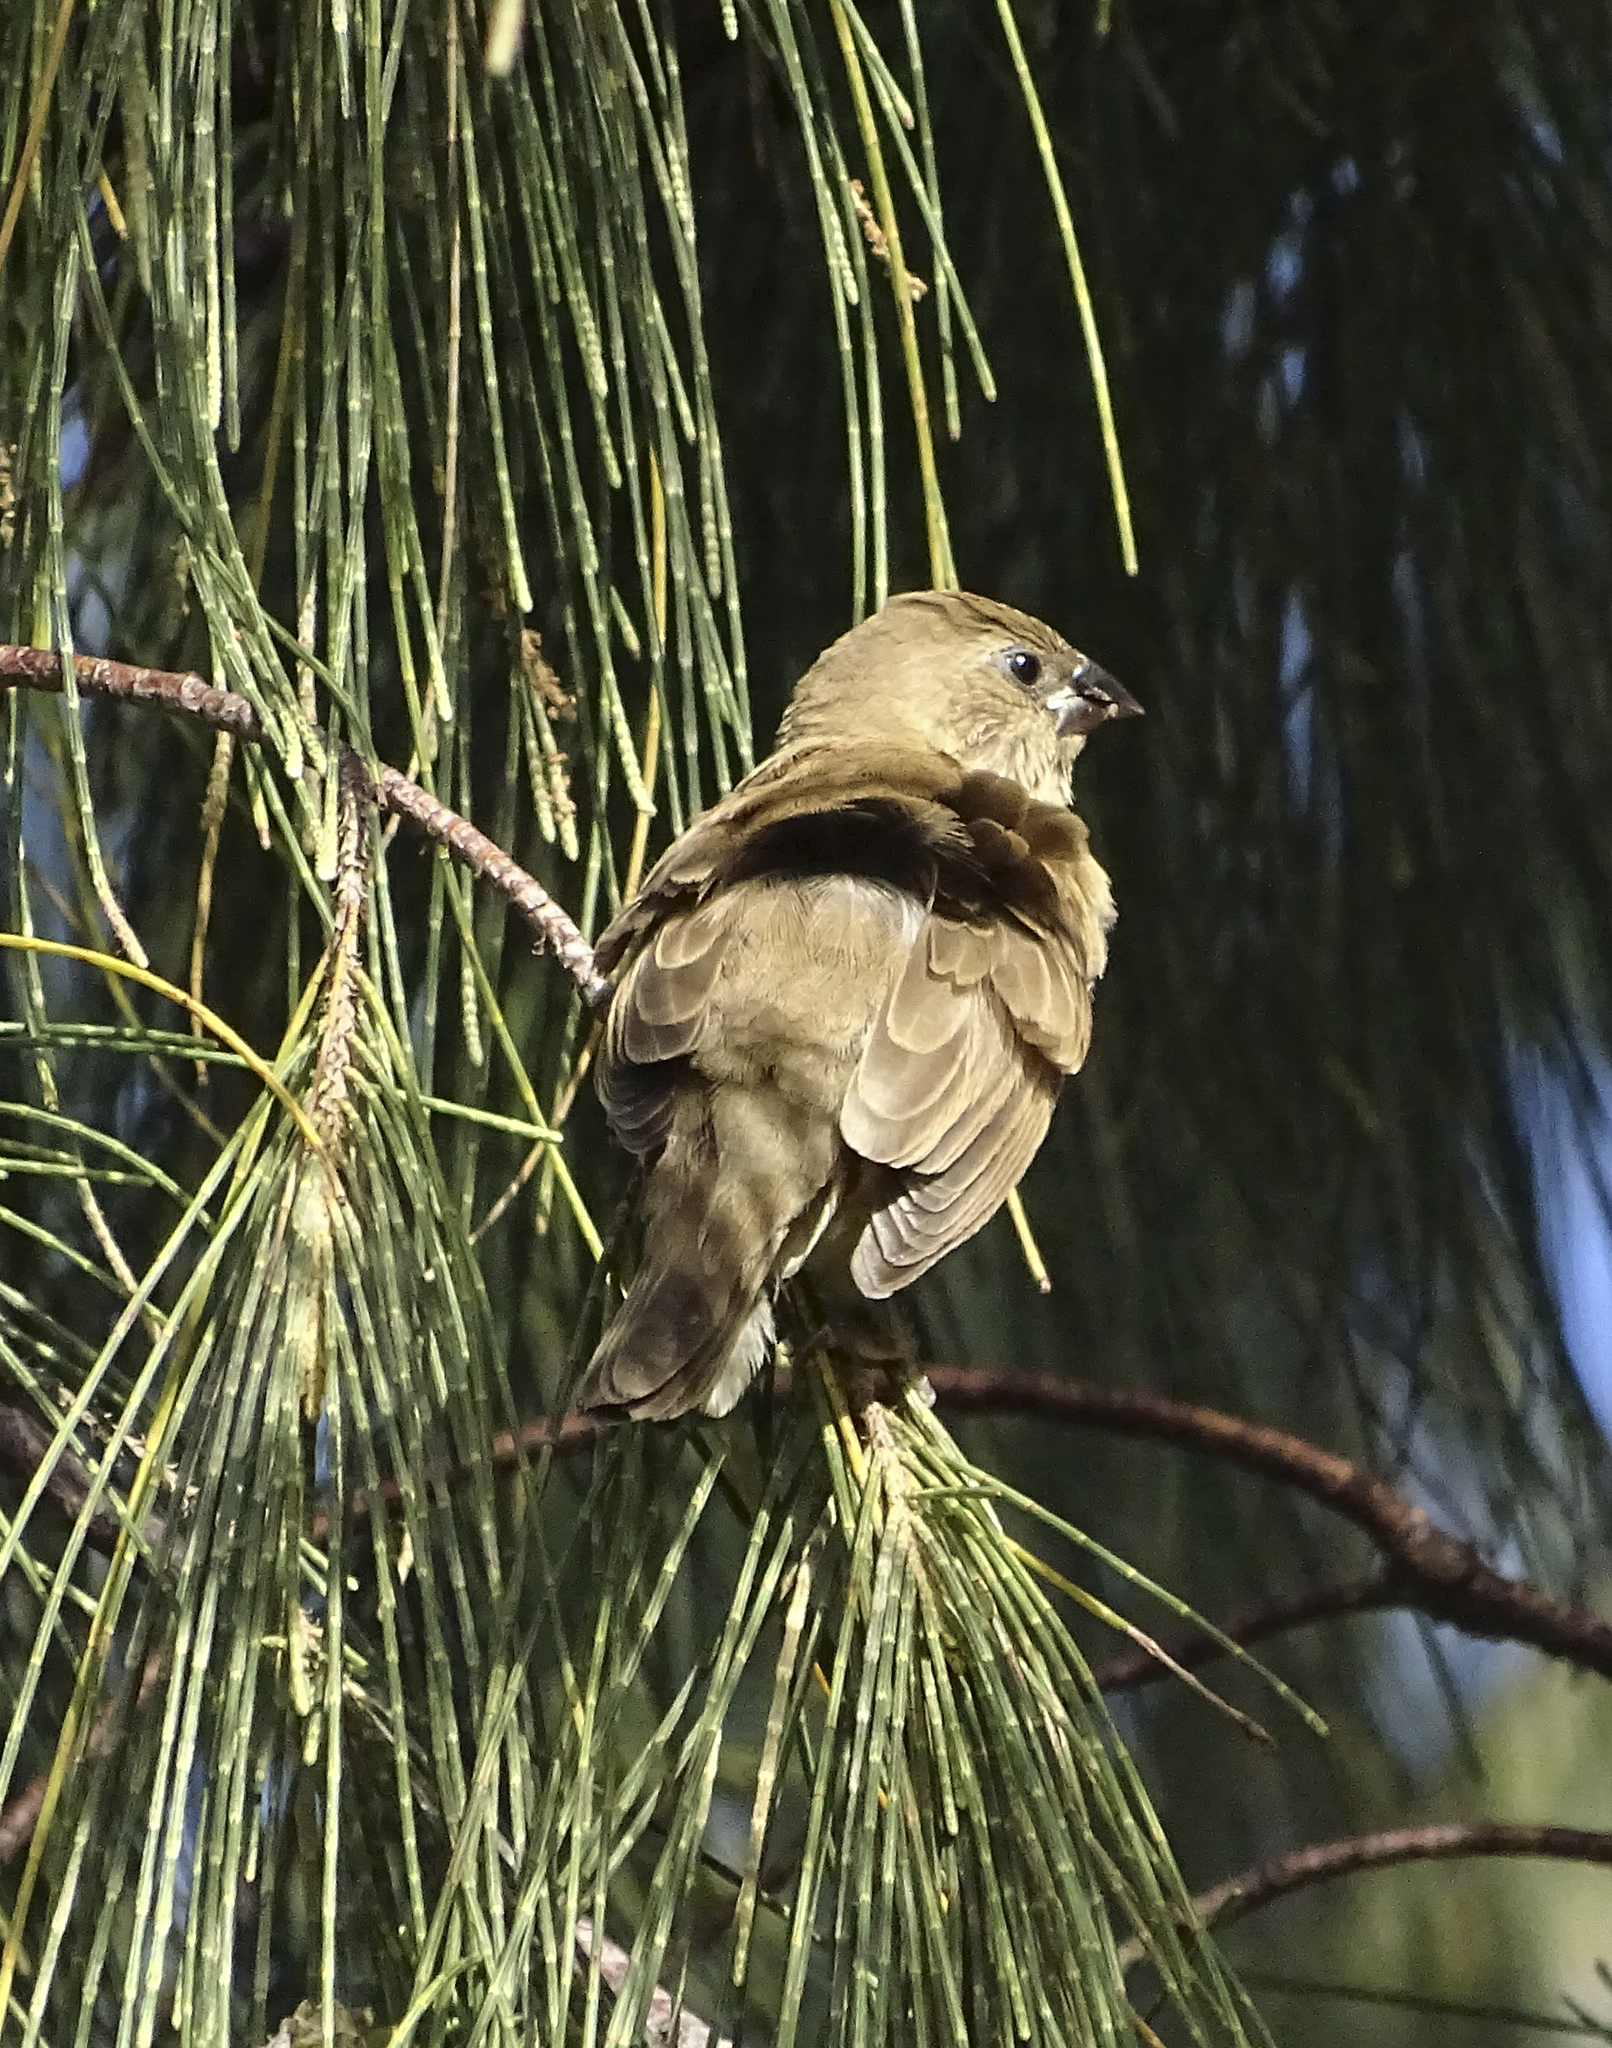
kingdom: Animalia
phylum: Chordata
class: Aves
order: Passeriformes
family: Estrildidae
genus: Lonchura
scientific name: Lonchura punctulata
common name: Scaly-breasted munia
